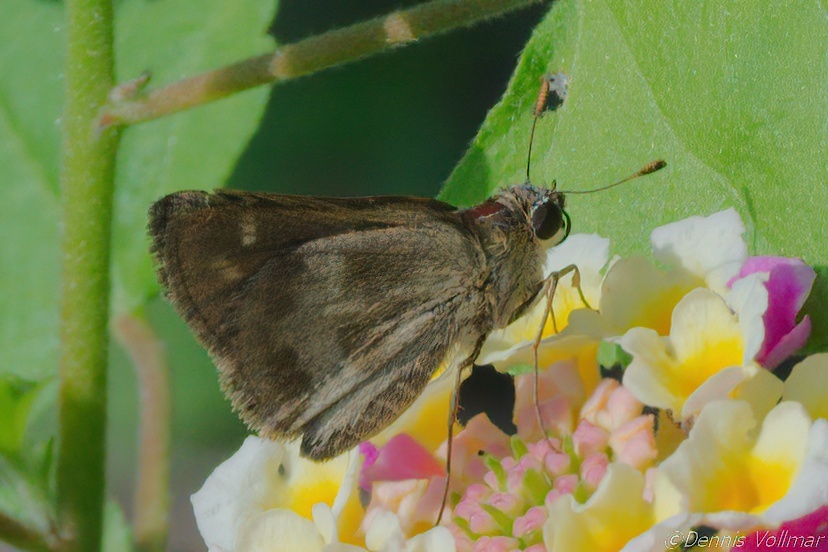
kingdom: Animalia
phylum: Arthropoda
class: Insecta
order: Lepidoptera
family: Hesperiidae
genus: Polites
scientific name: Polites vibex
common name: Whirlabout
